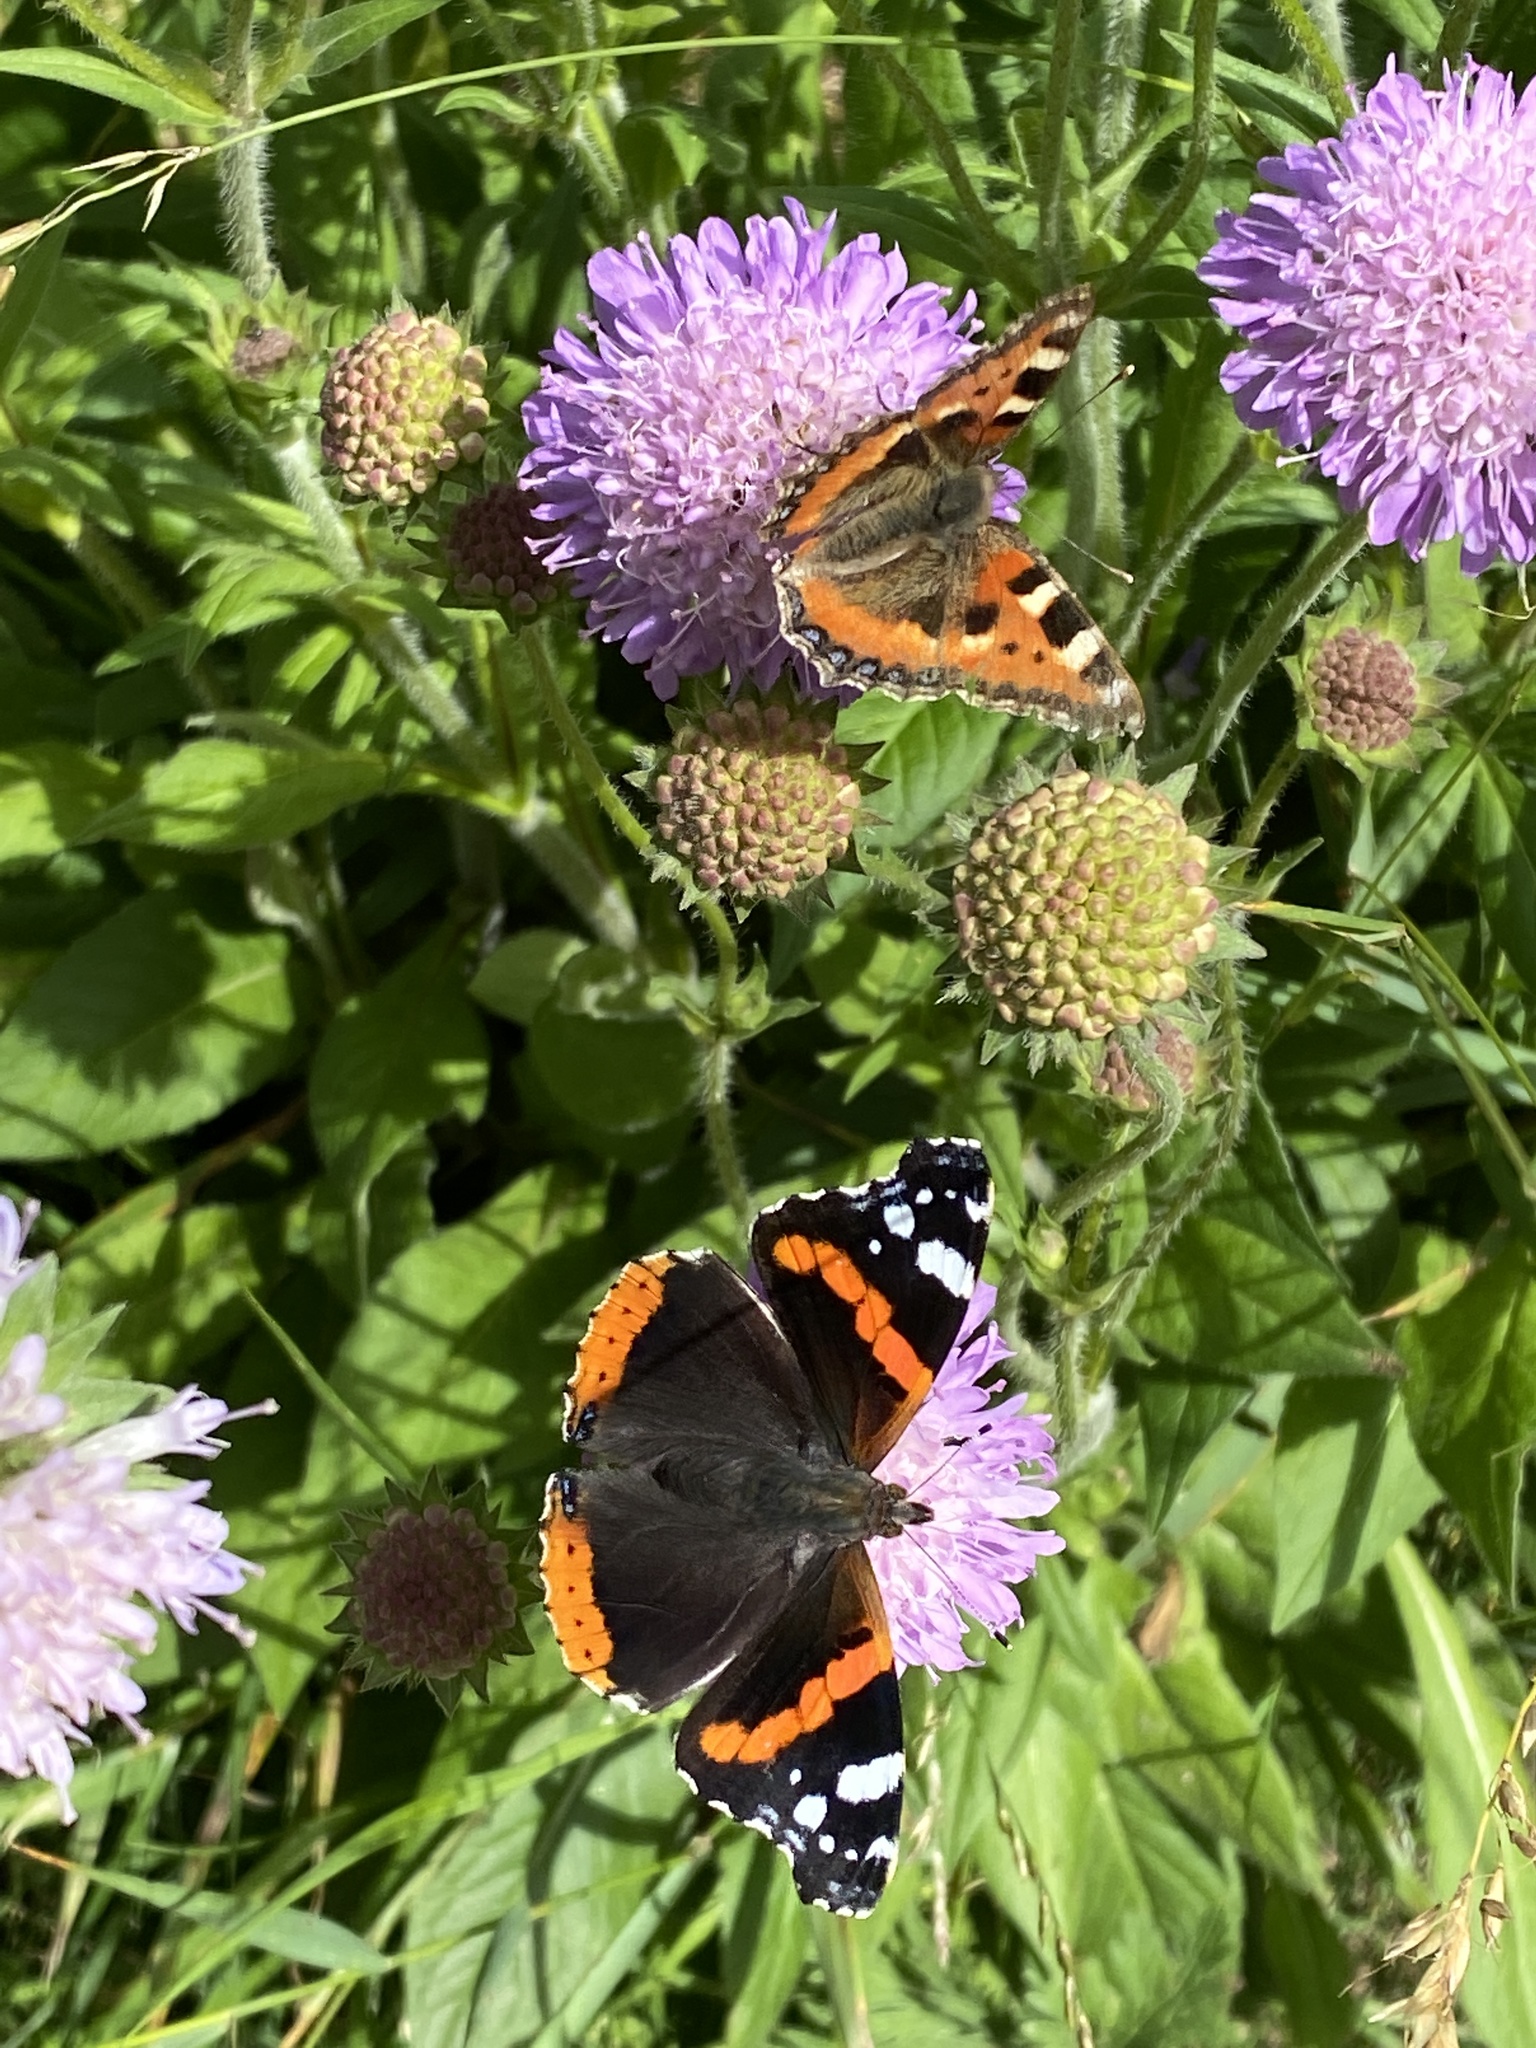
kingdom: Animalia
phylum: Arthropoda
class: Insecta
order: Lepidoptera
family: Nymphalidae
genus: Aglais
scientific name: Aglais urticae
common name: Small tortoiseshell
